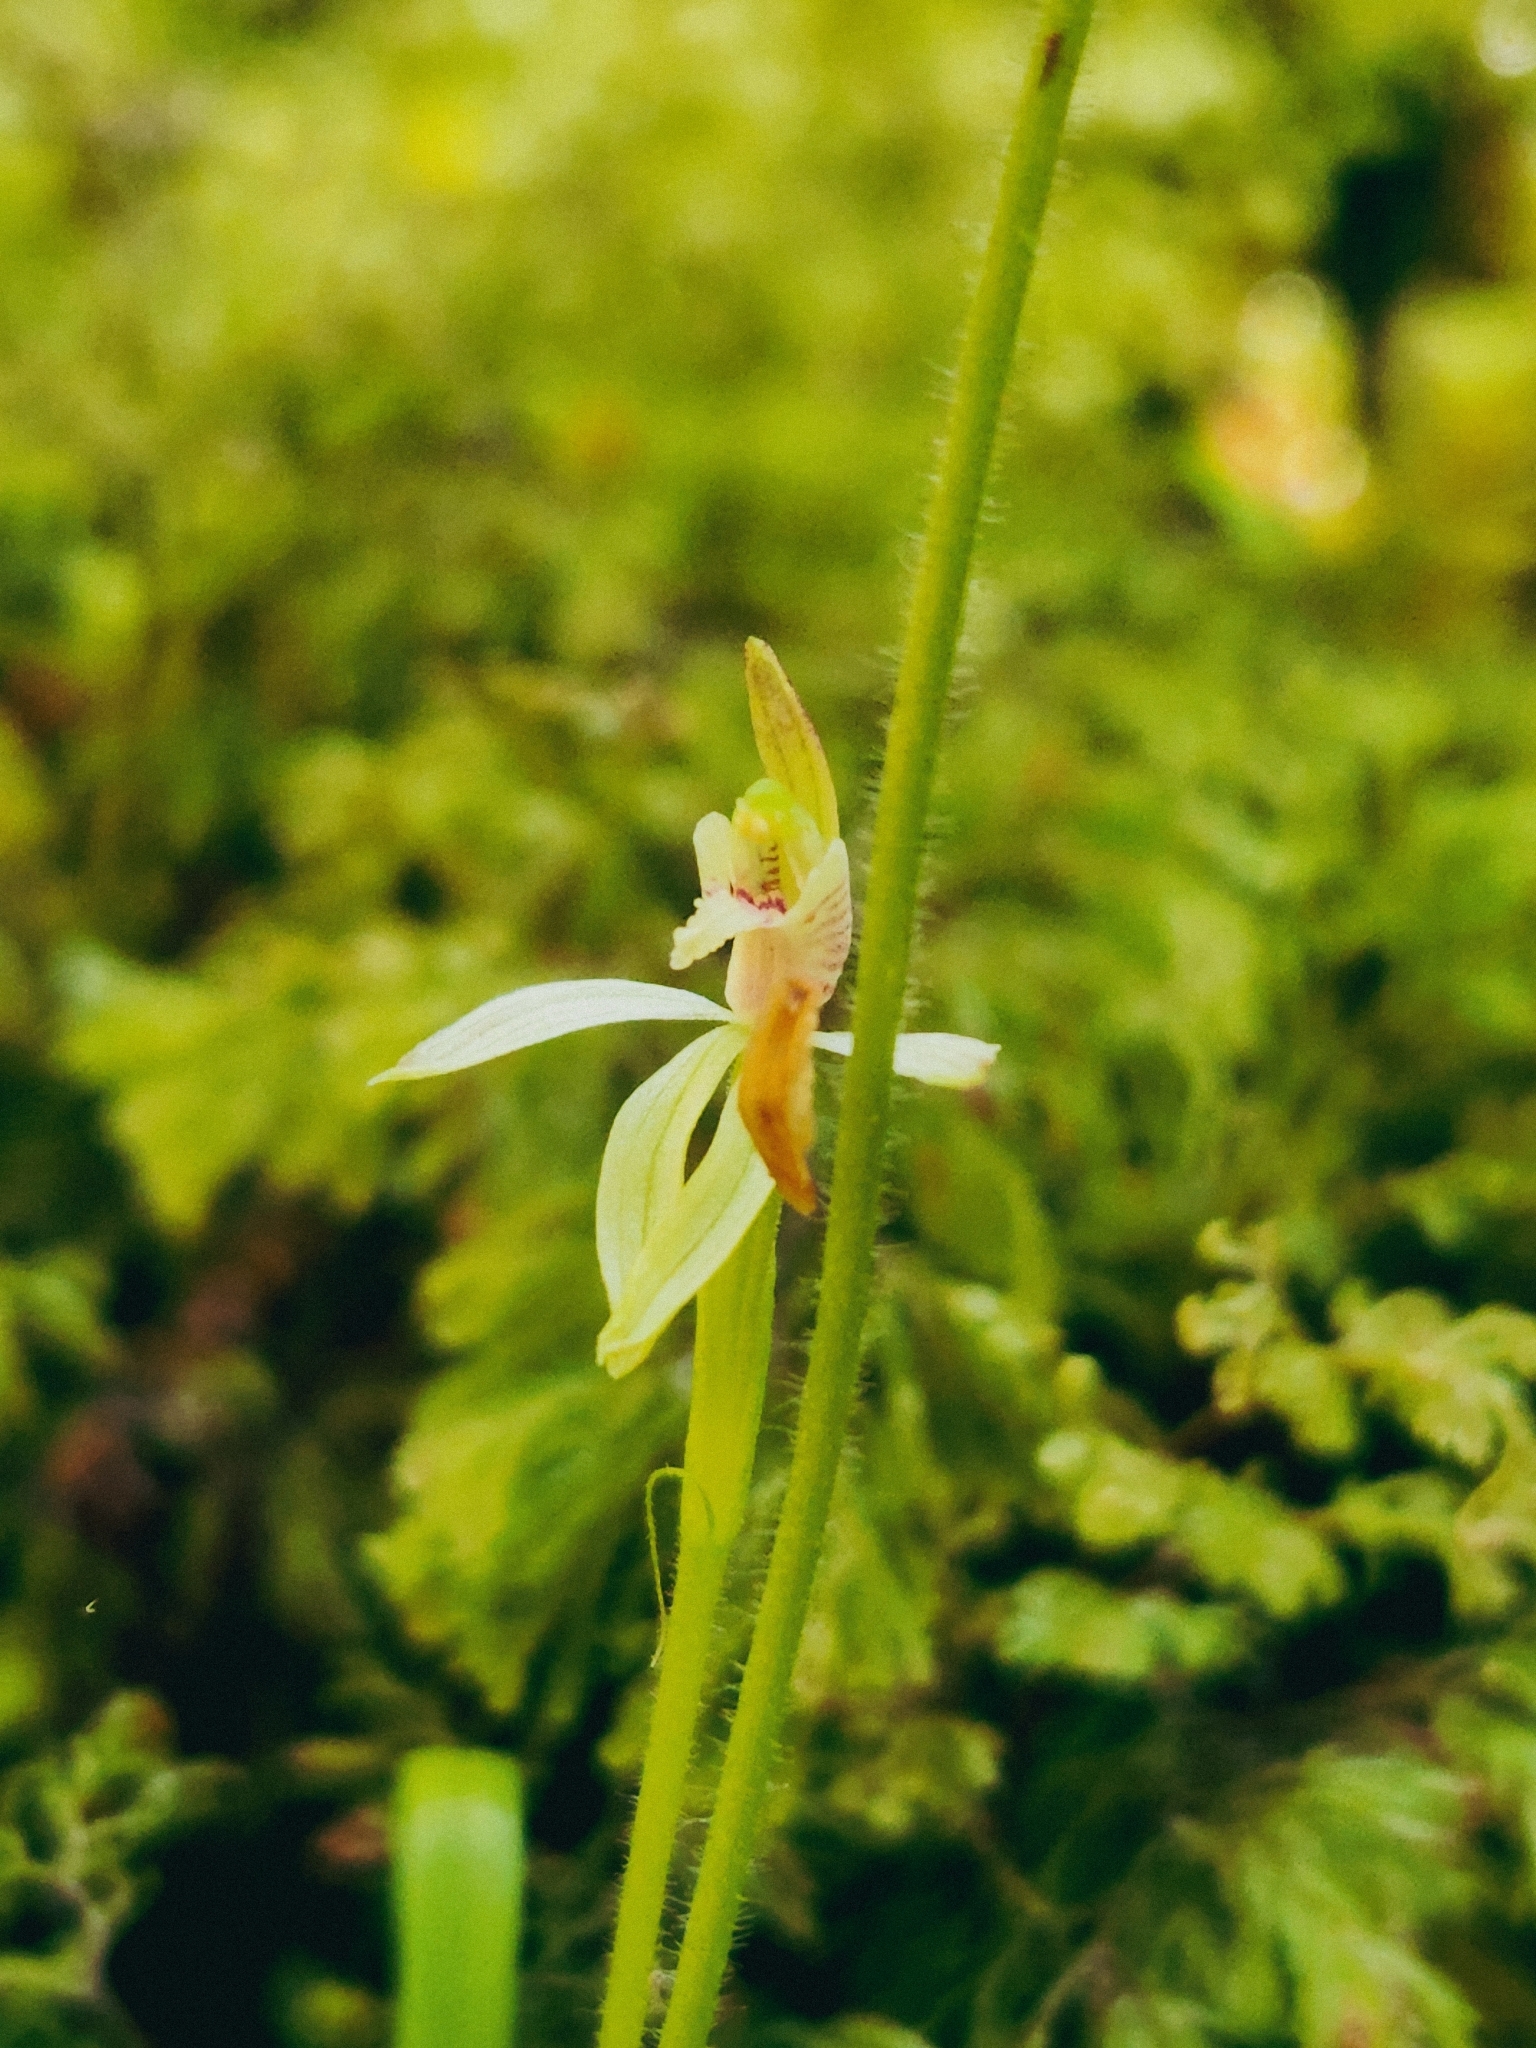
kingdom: Plantae
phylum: Tracheophyta
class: Liliopsida
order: Asparagales
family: Orchidaceae
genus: Caladenia
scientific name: Caladenia chlorostyla
